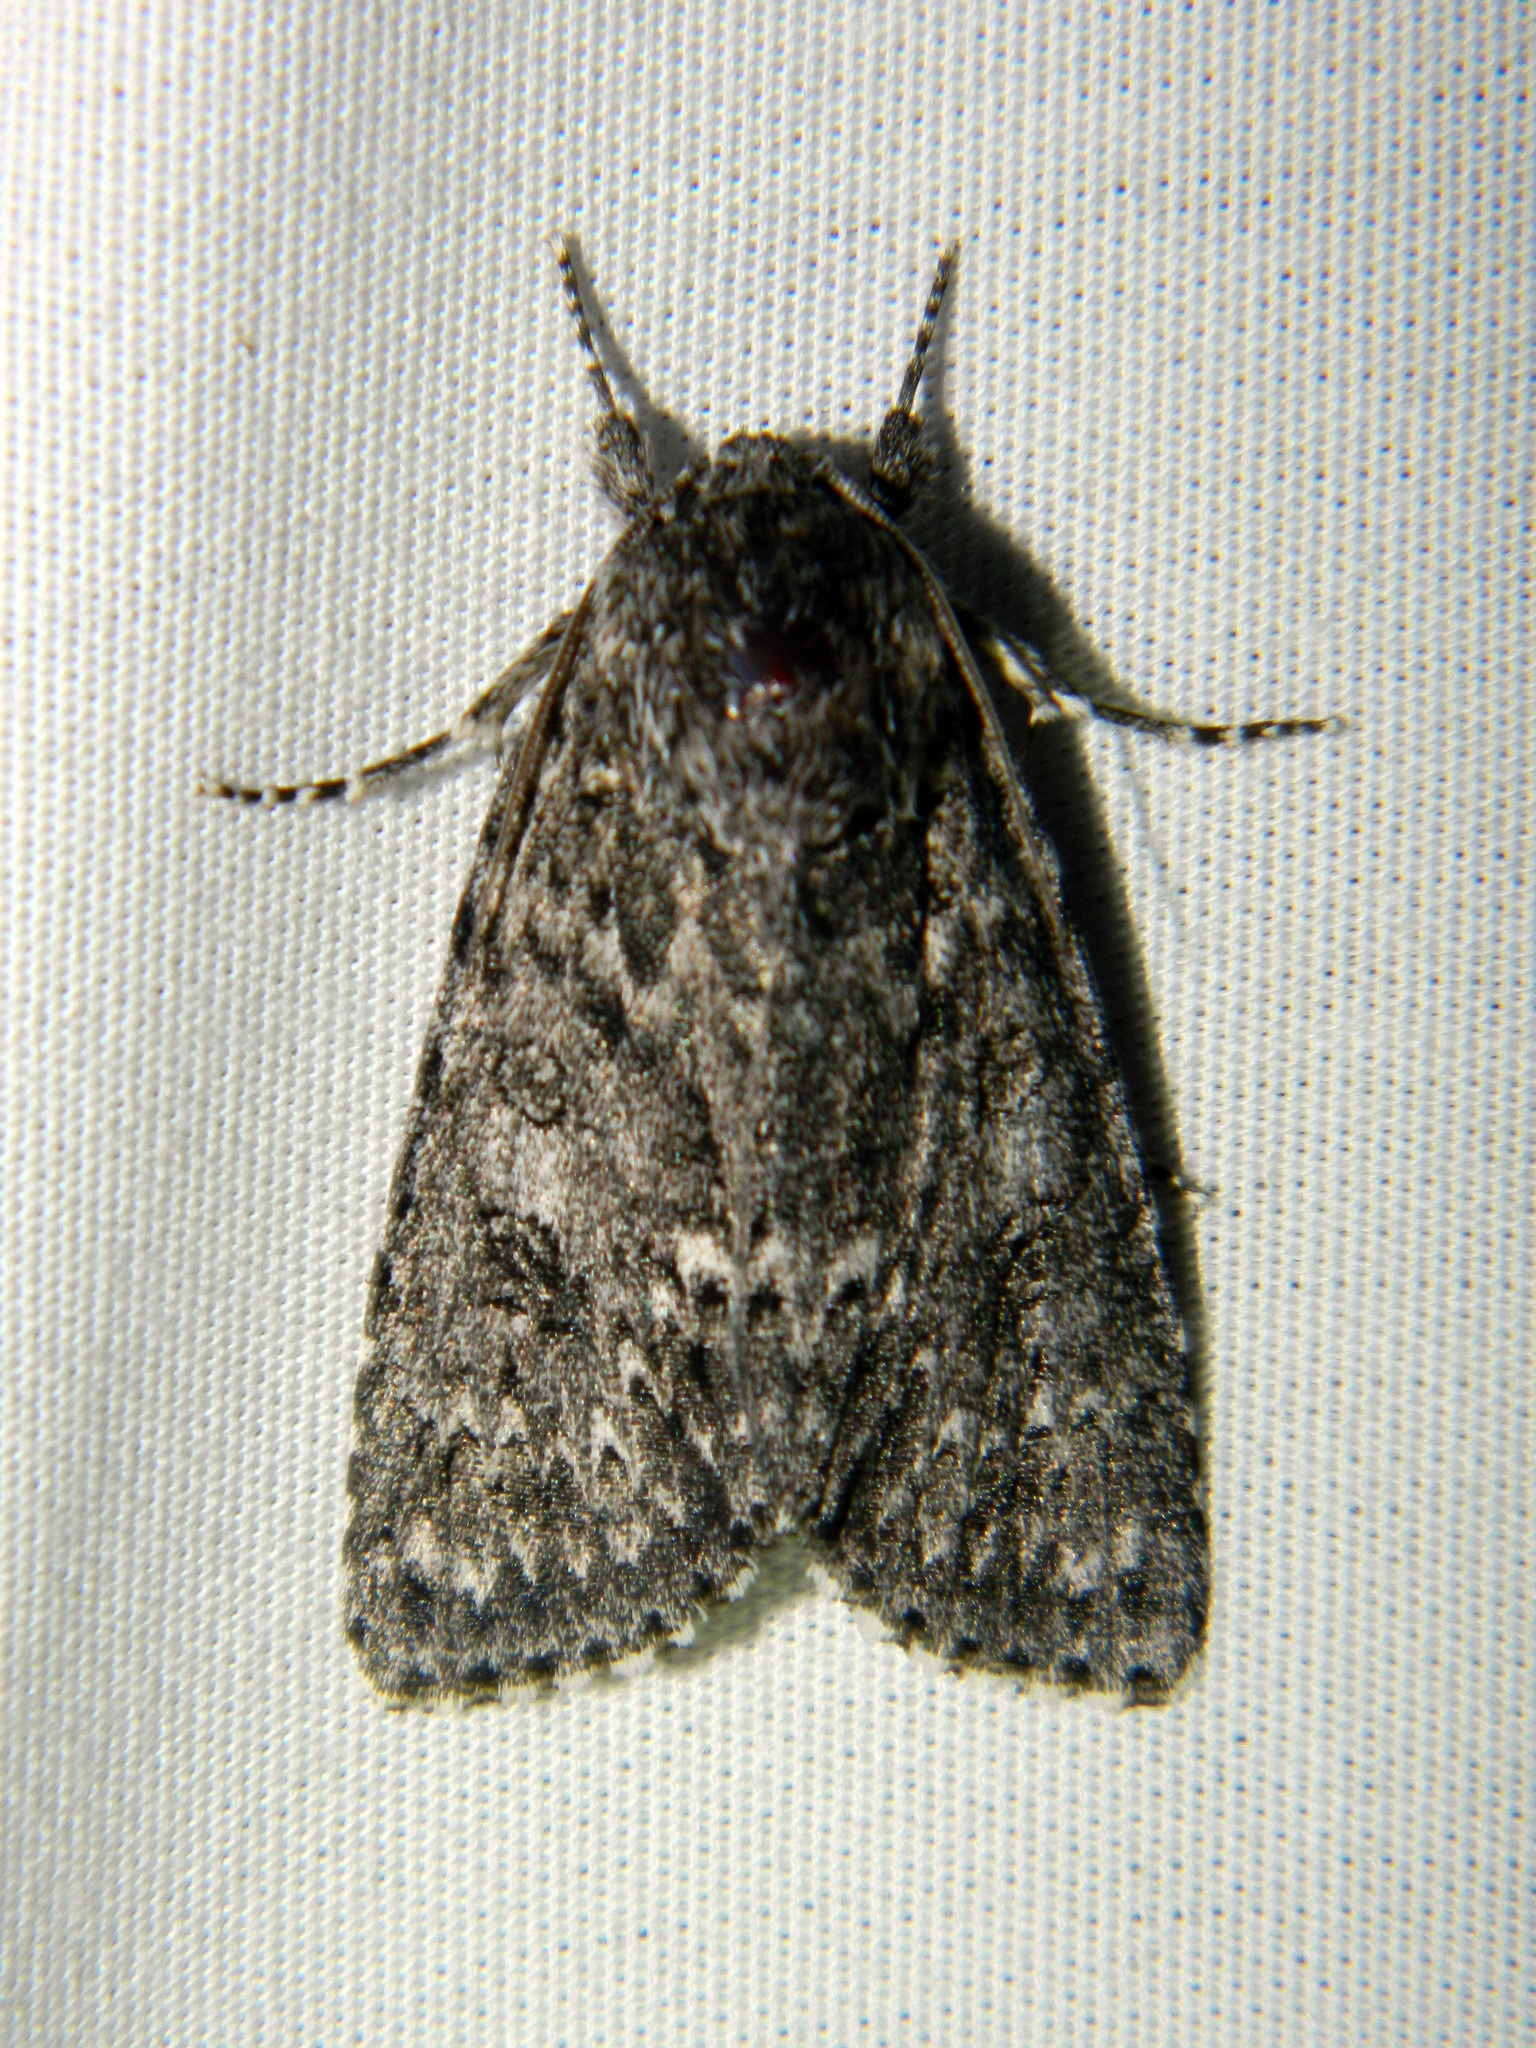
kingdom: Animalia
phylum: Arthropoda
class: Insecta
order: Lepidoptera
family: Noctuidae
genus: Acronicta
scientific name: Acronicta impleta
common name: Powdered dagger
